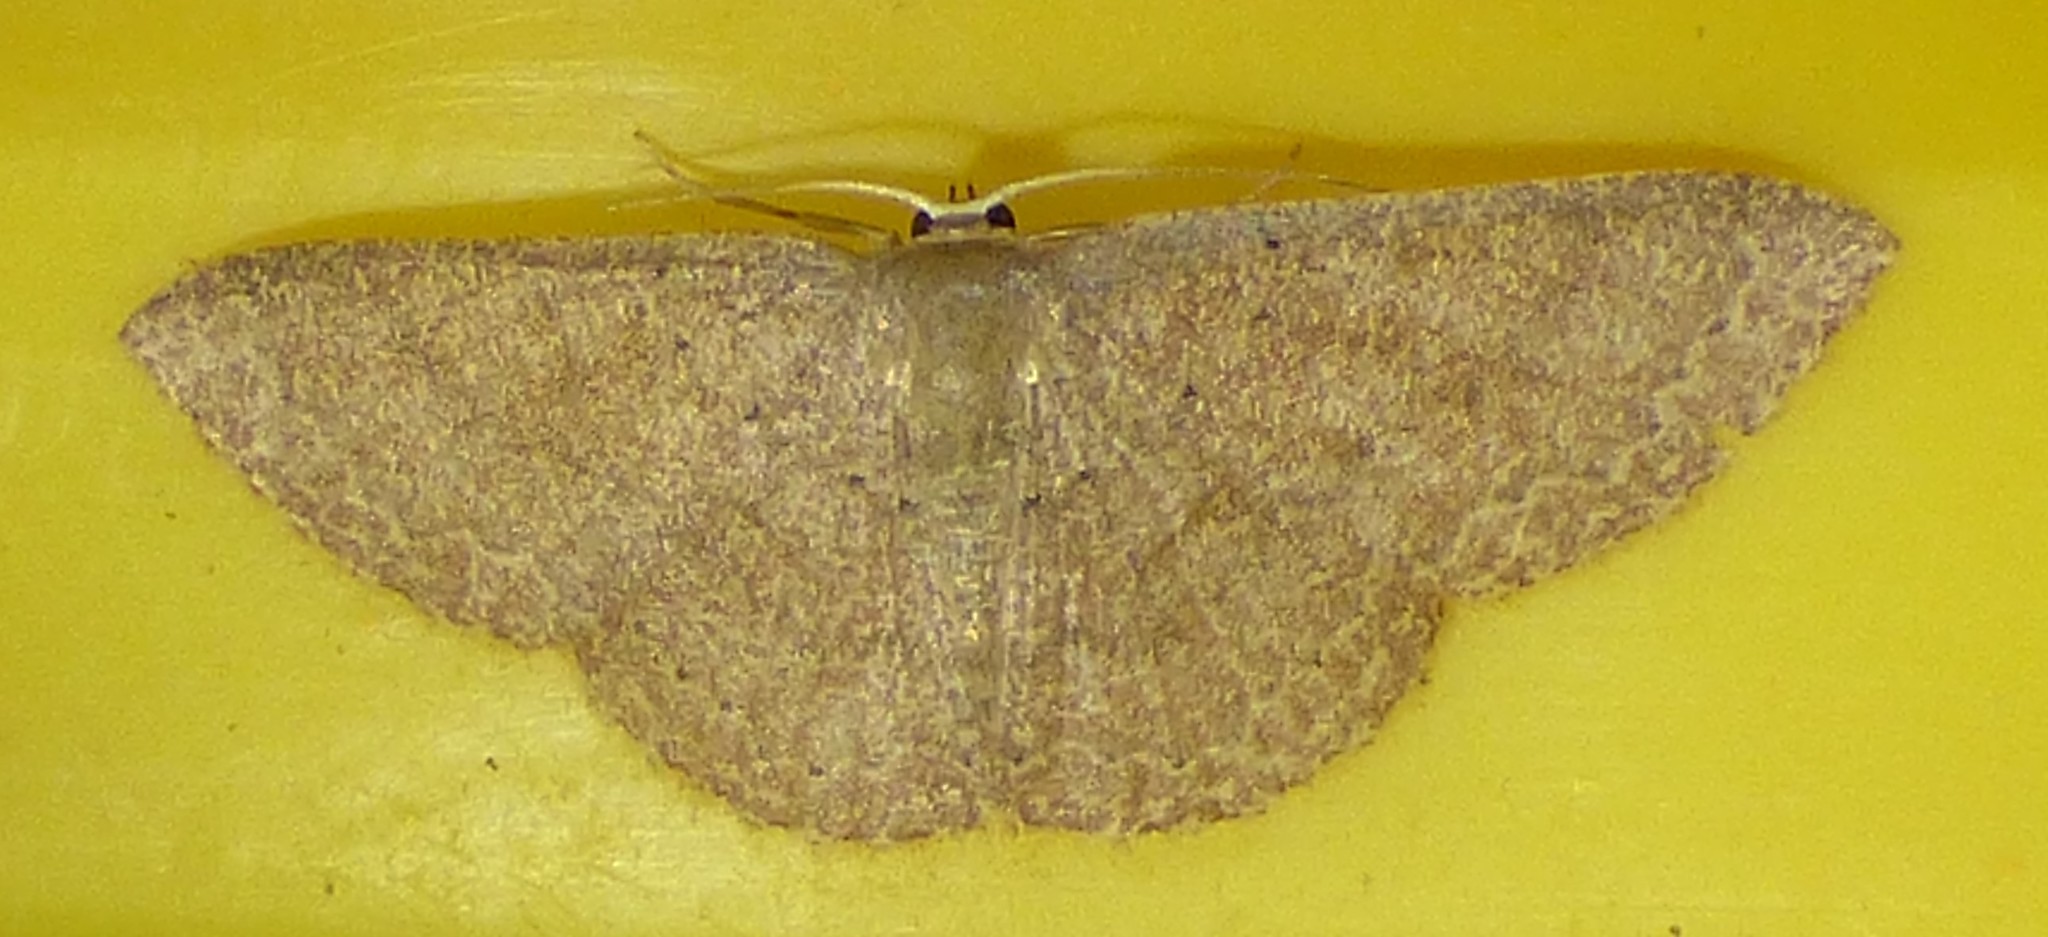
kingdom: Animalia
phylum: Arthropoda
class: Insecta
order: Lepidoptera
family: Geometridae
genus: Pleuroprucha
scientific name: Pleuroprucha insulsaria
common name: Common tan wave
